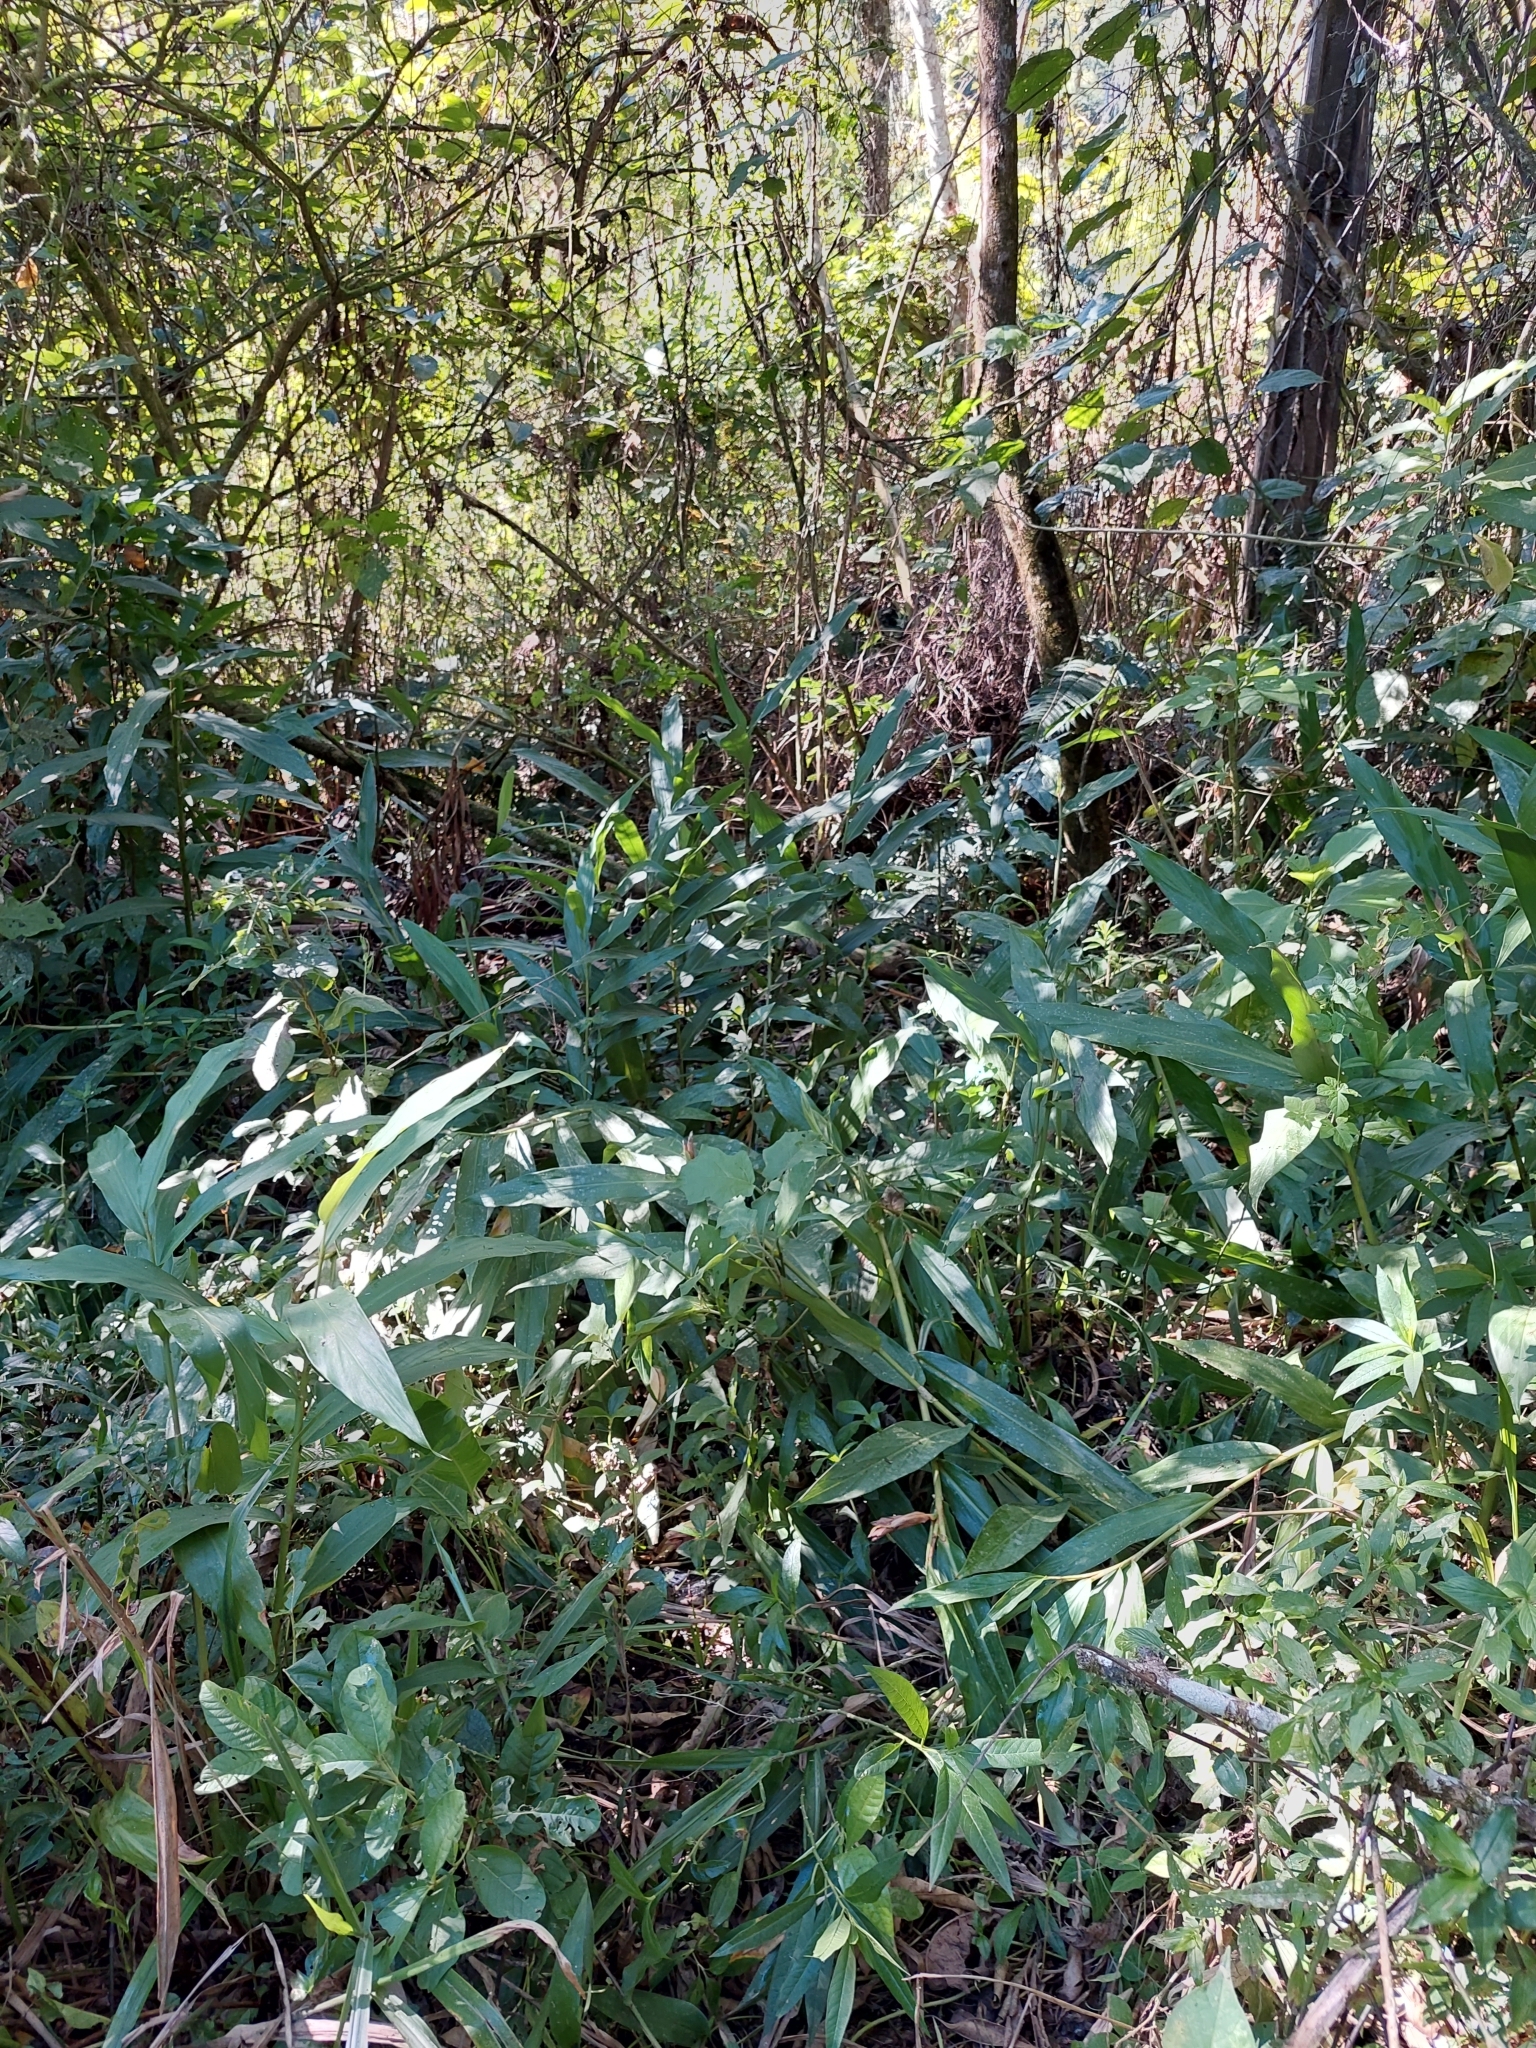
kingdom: Plantae
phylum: Tracheophyta
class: Liliopsida
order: Zingiberales
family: Zingiberaceae
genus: Hedychium
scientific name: Hedychium coronarium
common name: White garland-lily
